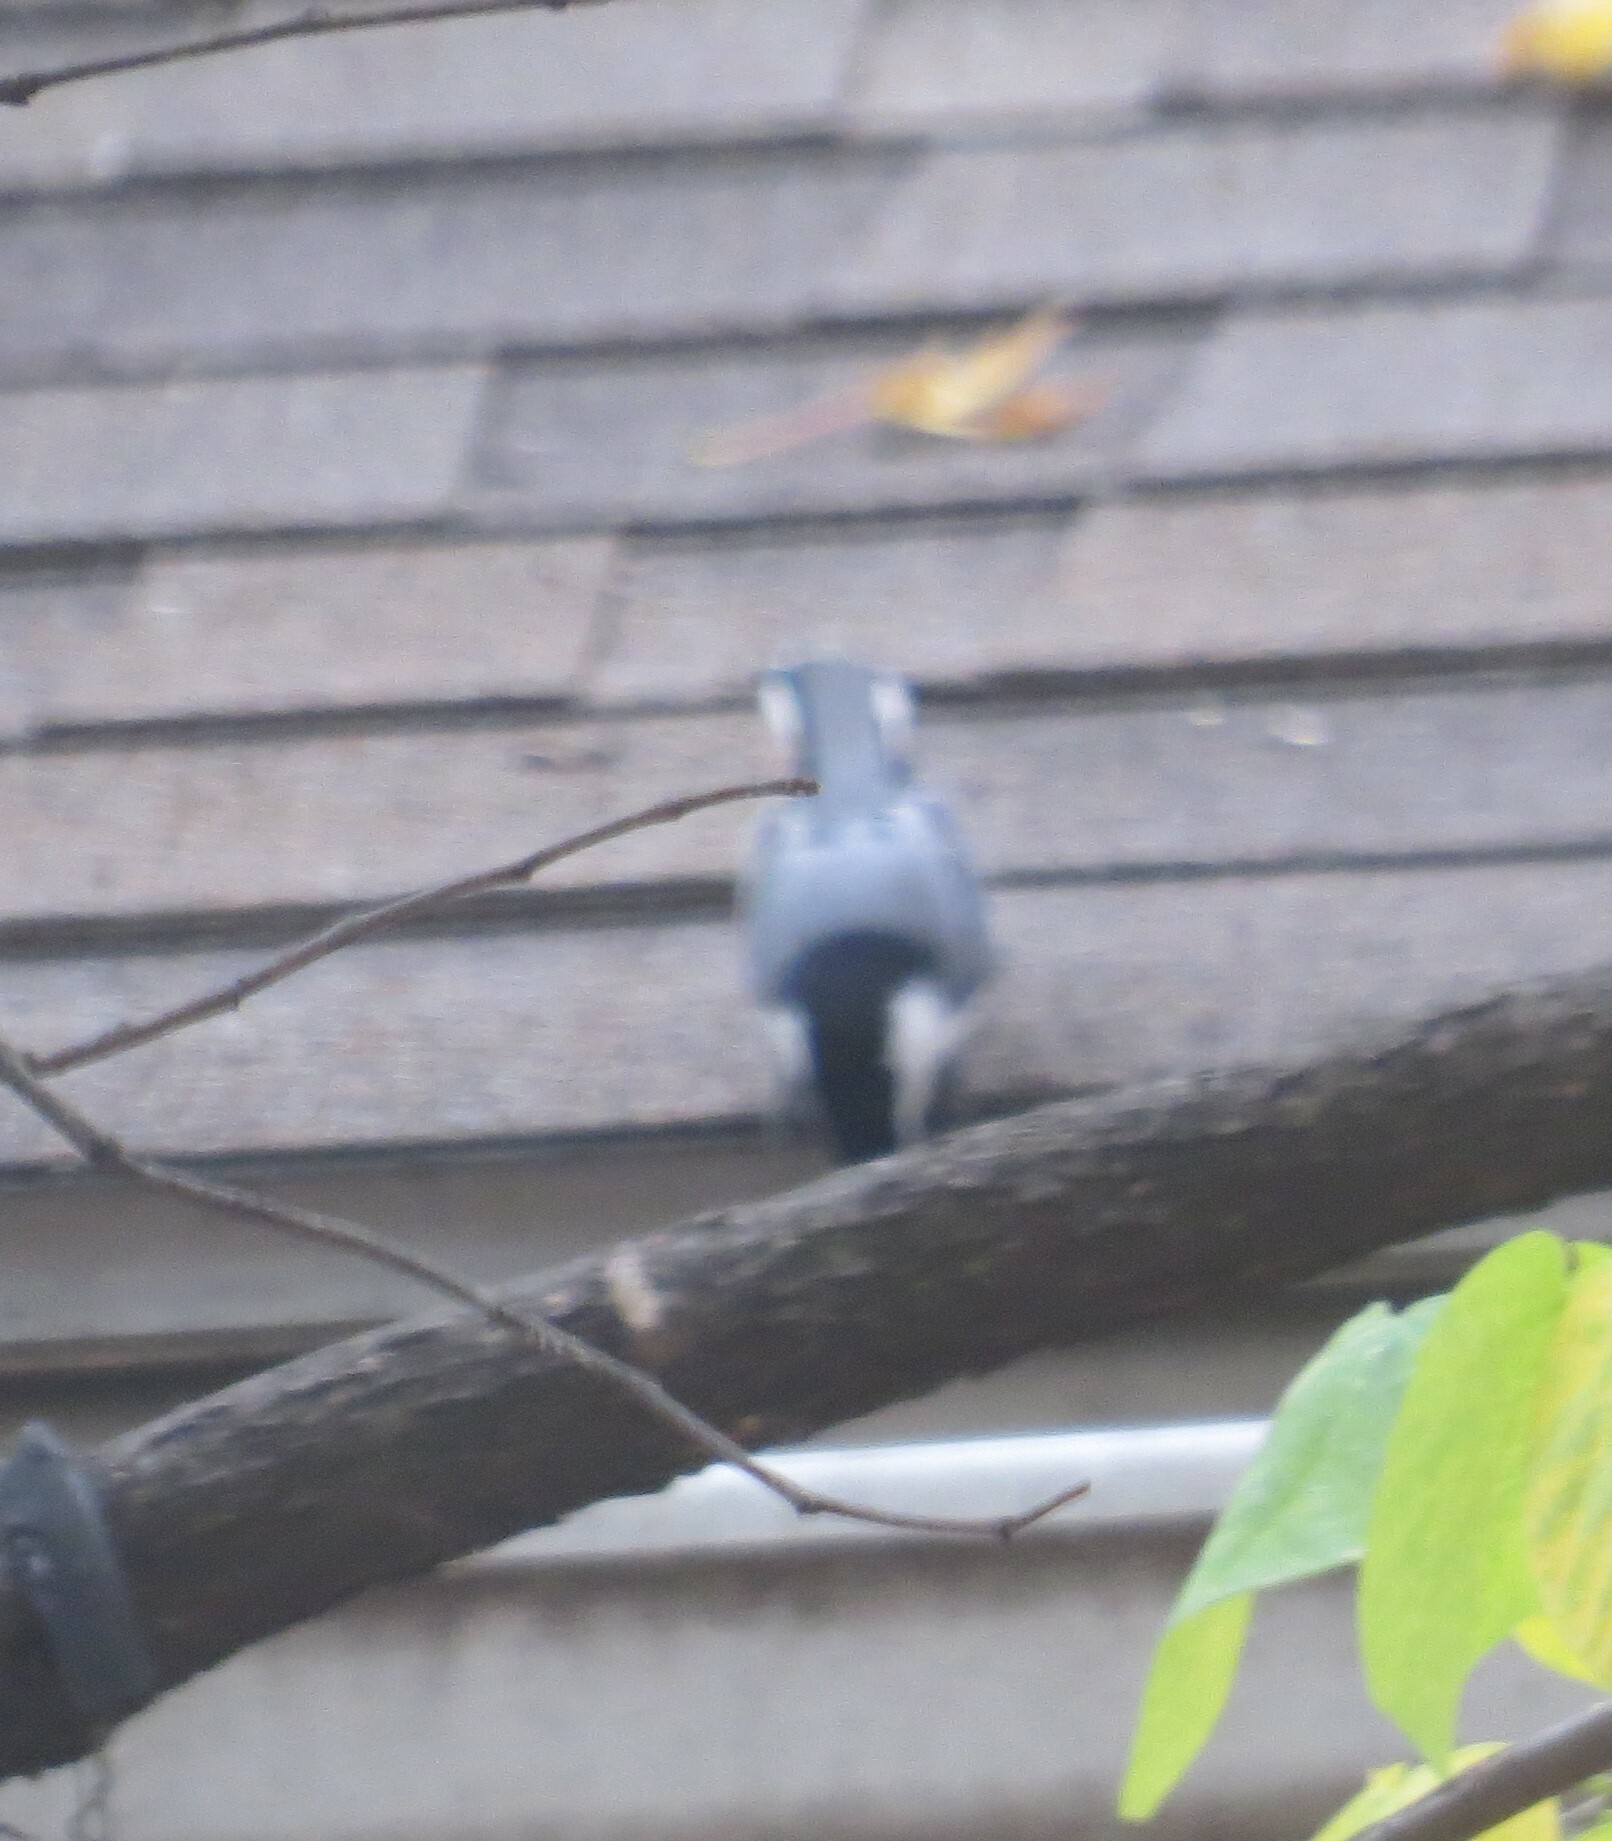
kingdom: Animalia
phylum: Chordata
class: Aves
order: Passeriformes
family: Sittidae
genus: Sitta
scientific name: Sitta carolinensis
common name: White-breasted nuthatch
